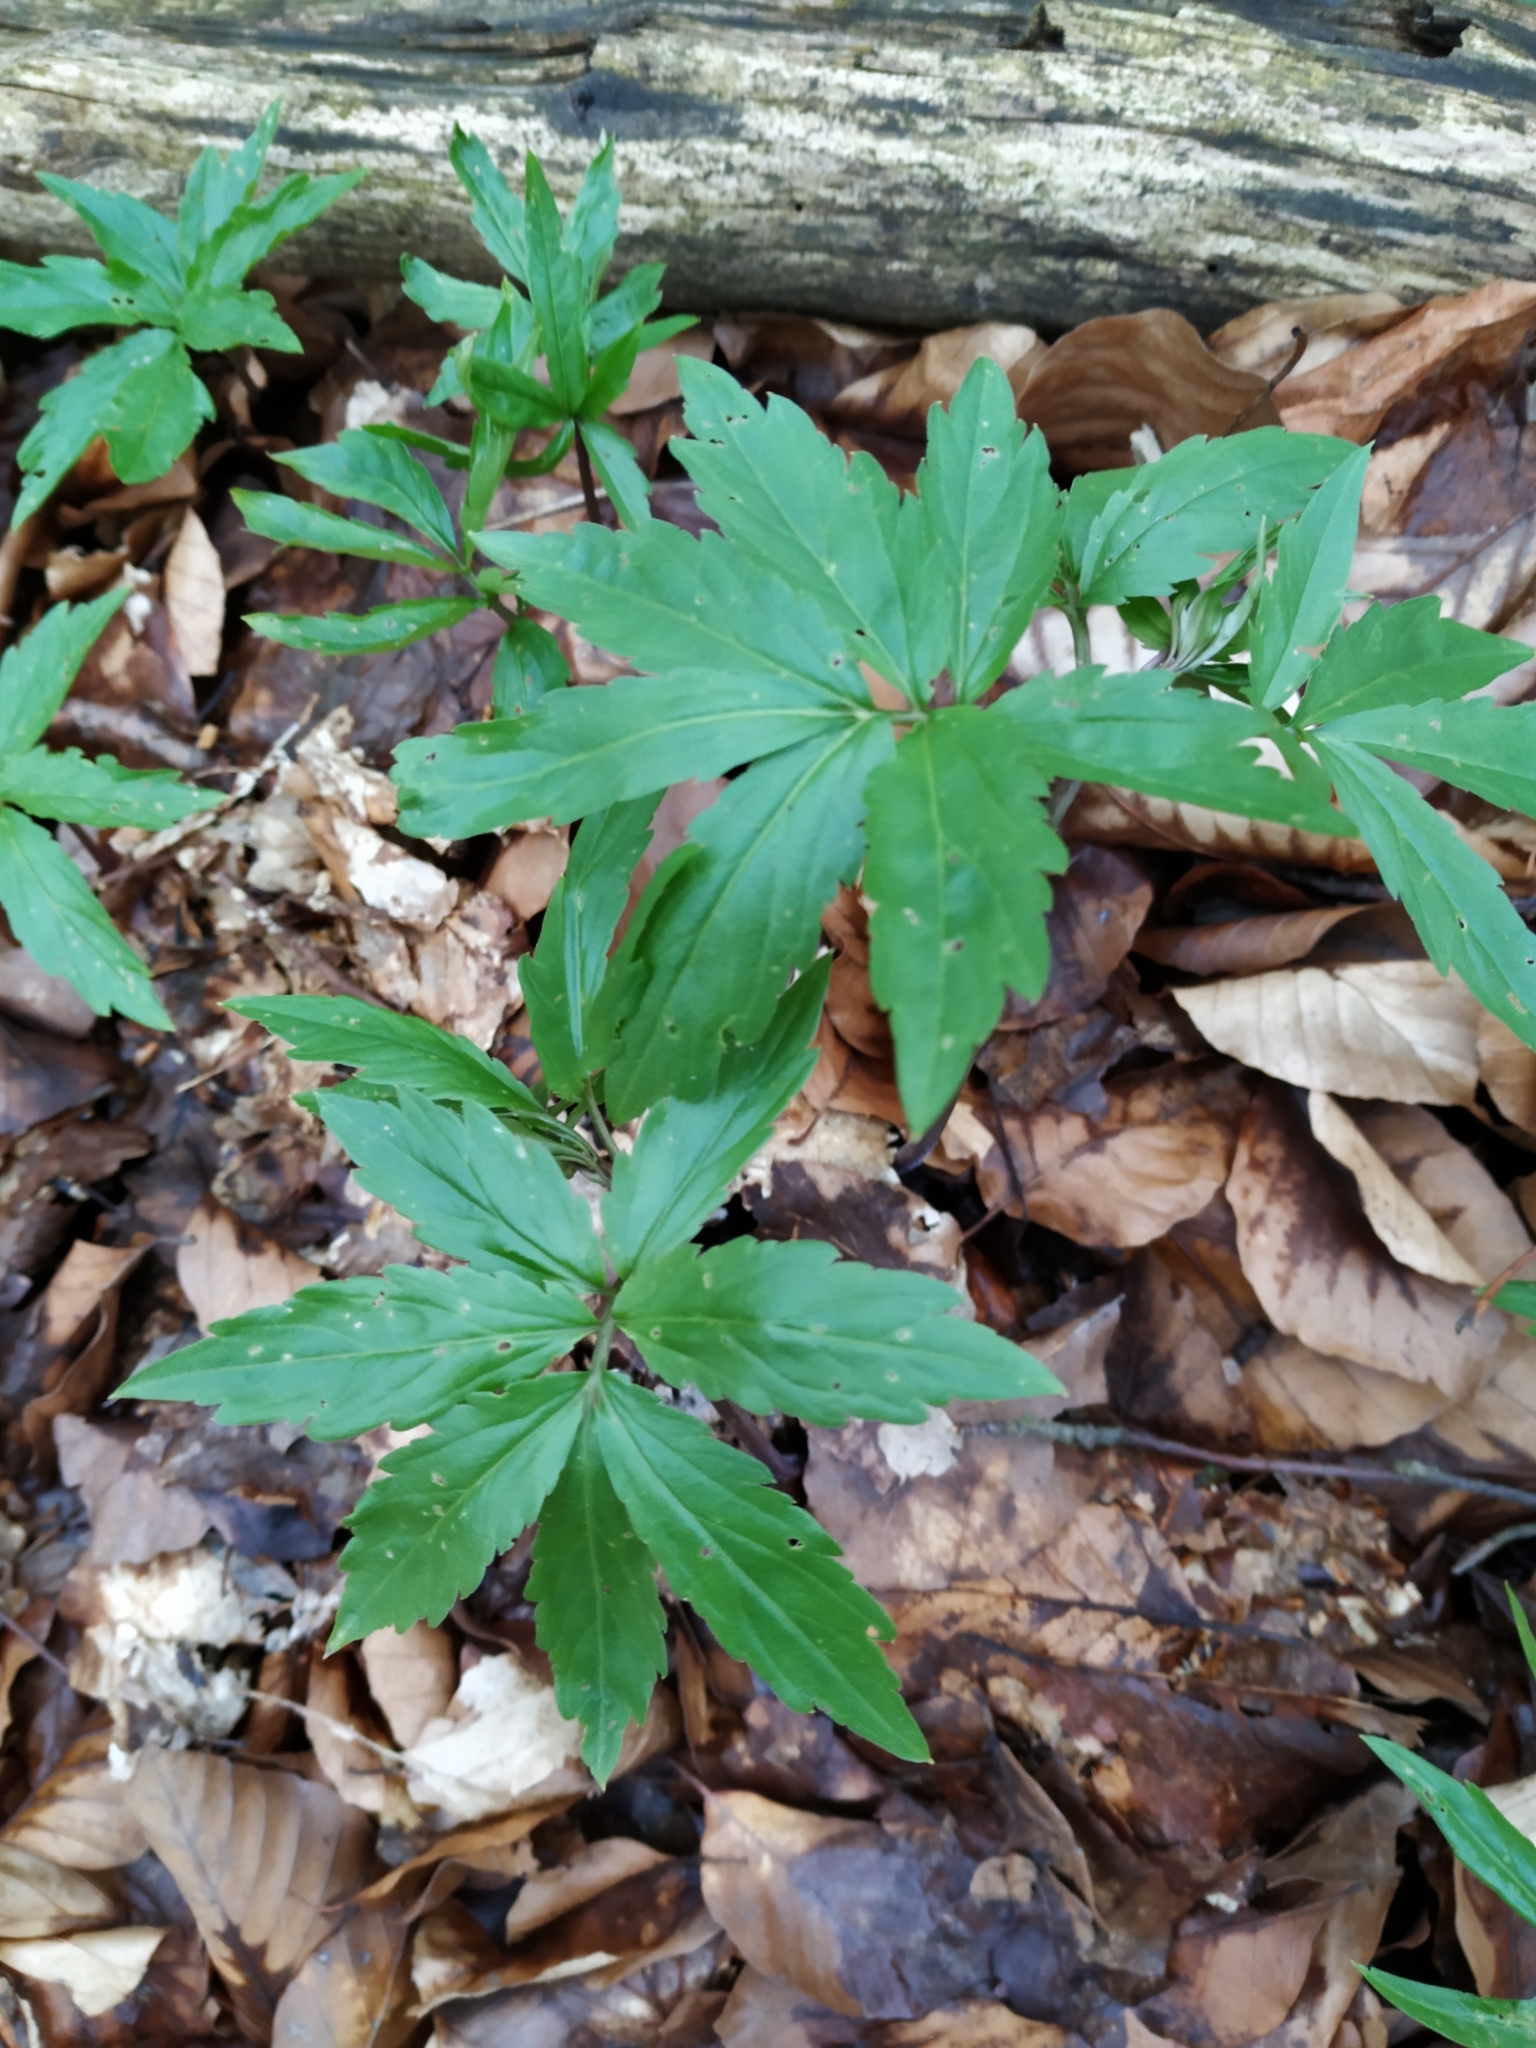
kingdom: Plantae
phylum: Tracheophyta
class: Magnoliopsida
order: Brassicales
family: Brassicaceae
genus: Cardamine
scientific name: Cardamine bulbifera
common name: Coralroot bittercress
